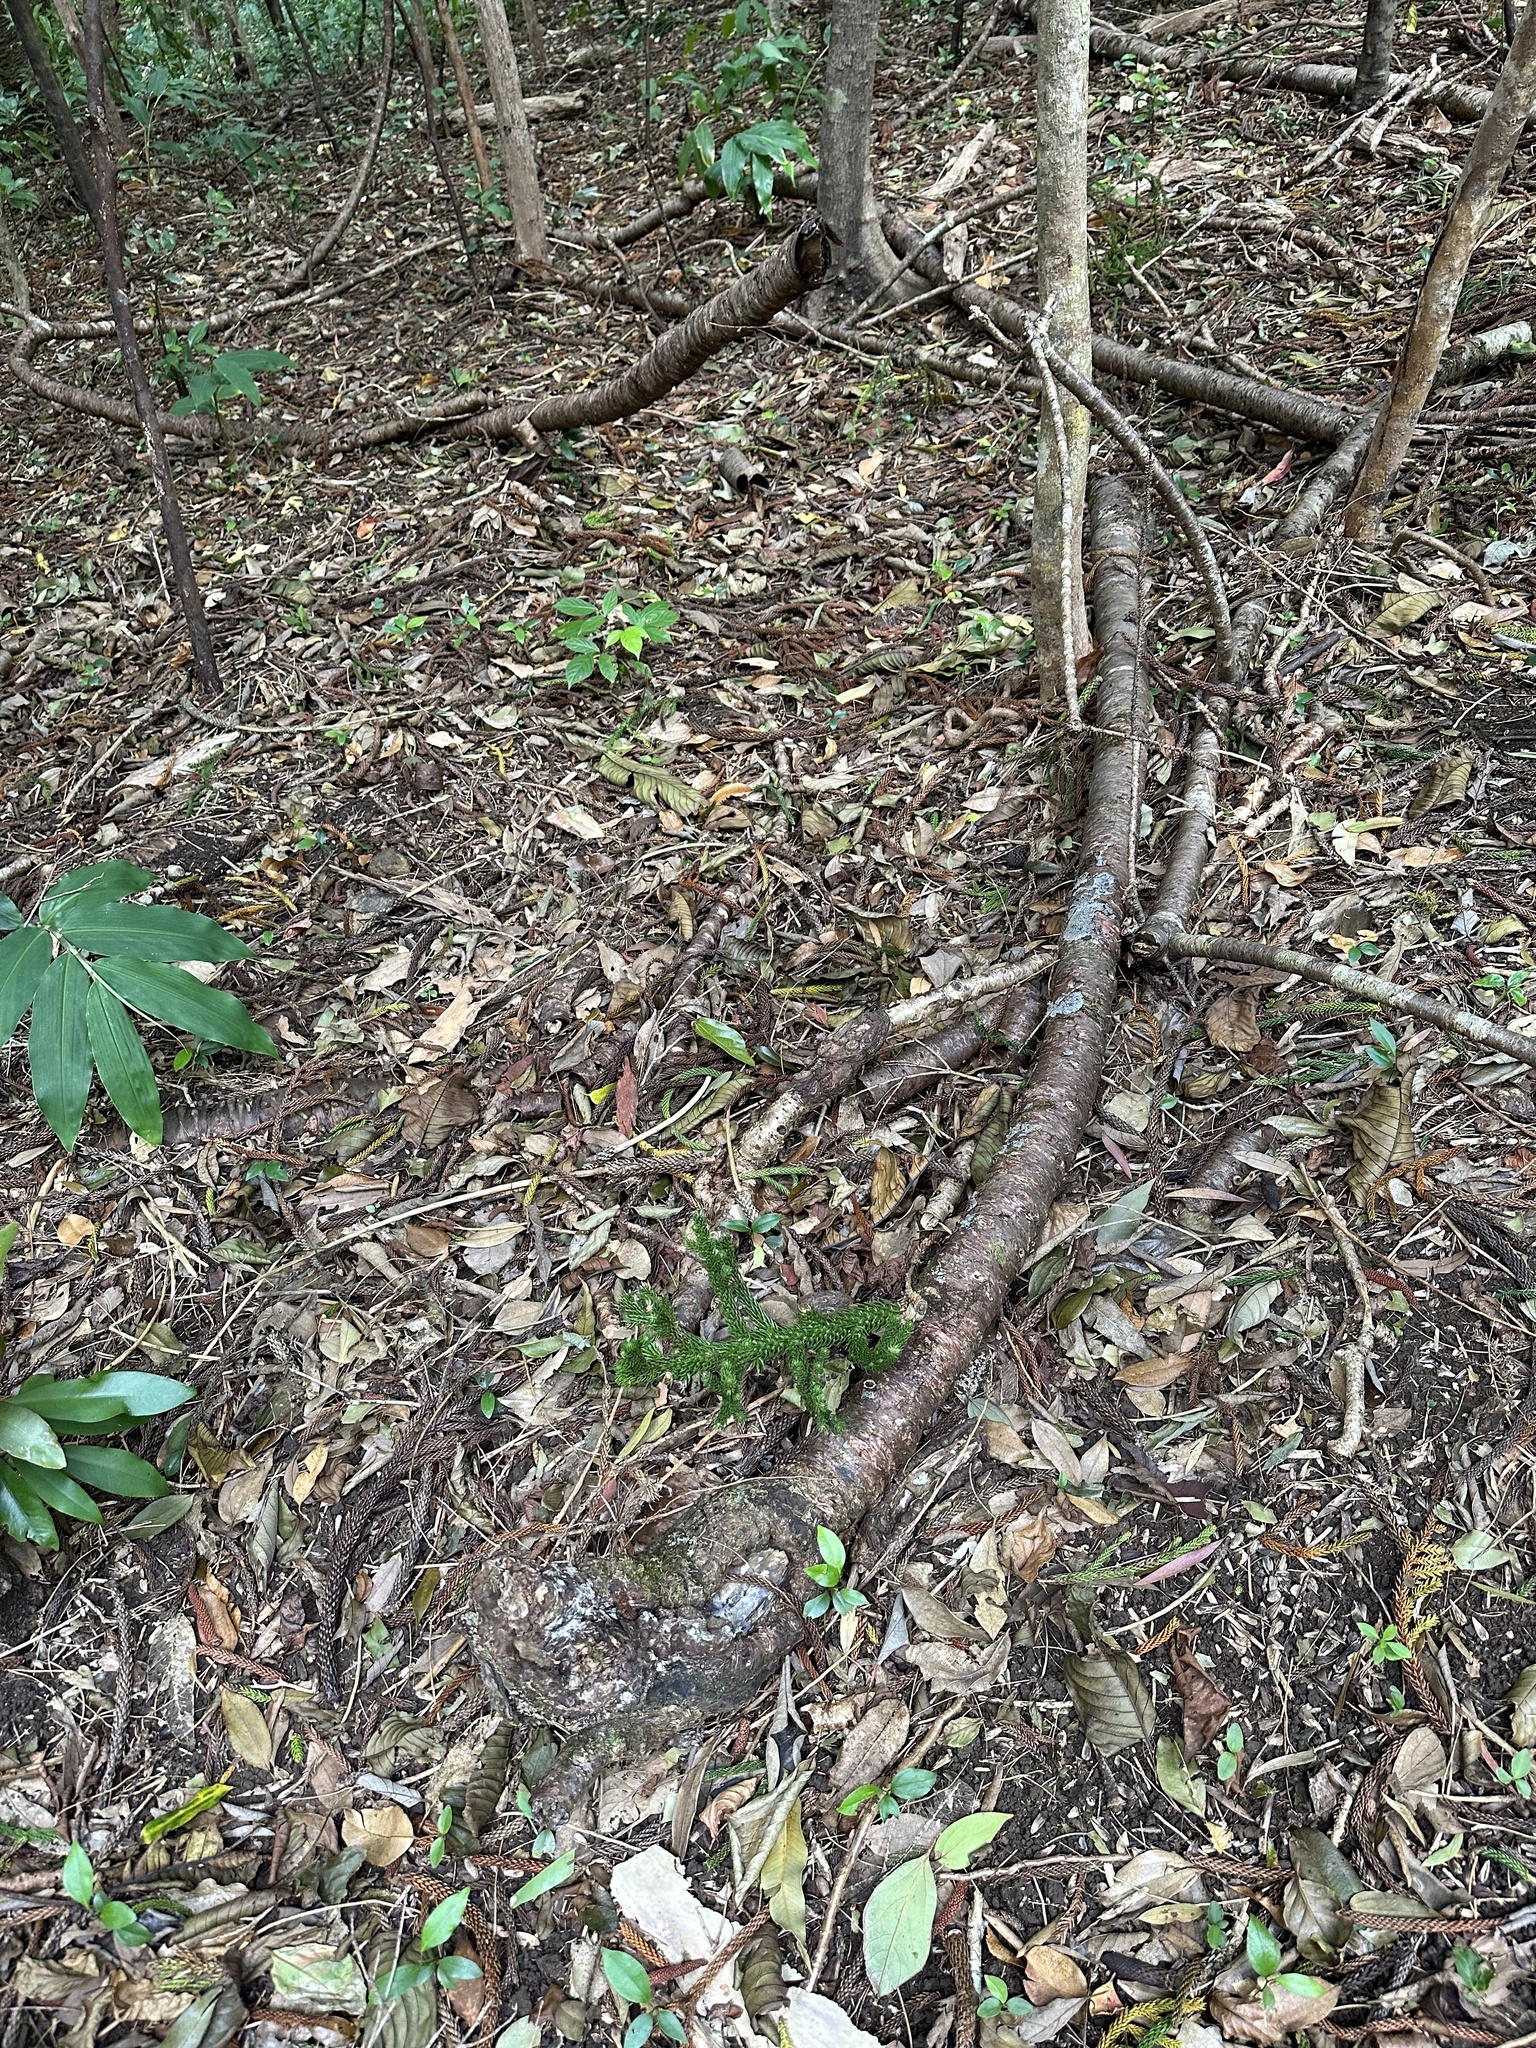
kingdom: Plantae
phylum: Tracheophyta
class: Pinopsida
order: Pinales
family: Araucariaceae
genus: Araucaria
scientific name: Araucaria columnaris
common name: Coral reef araucaria
